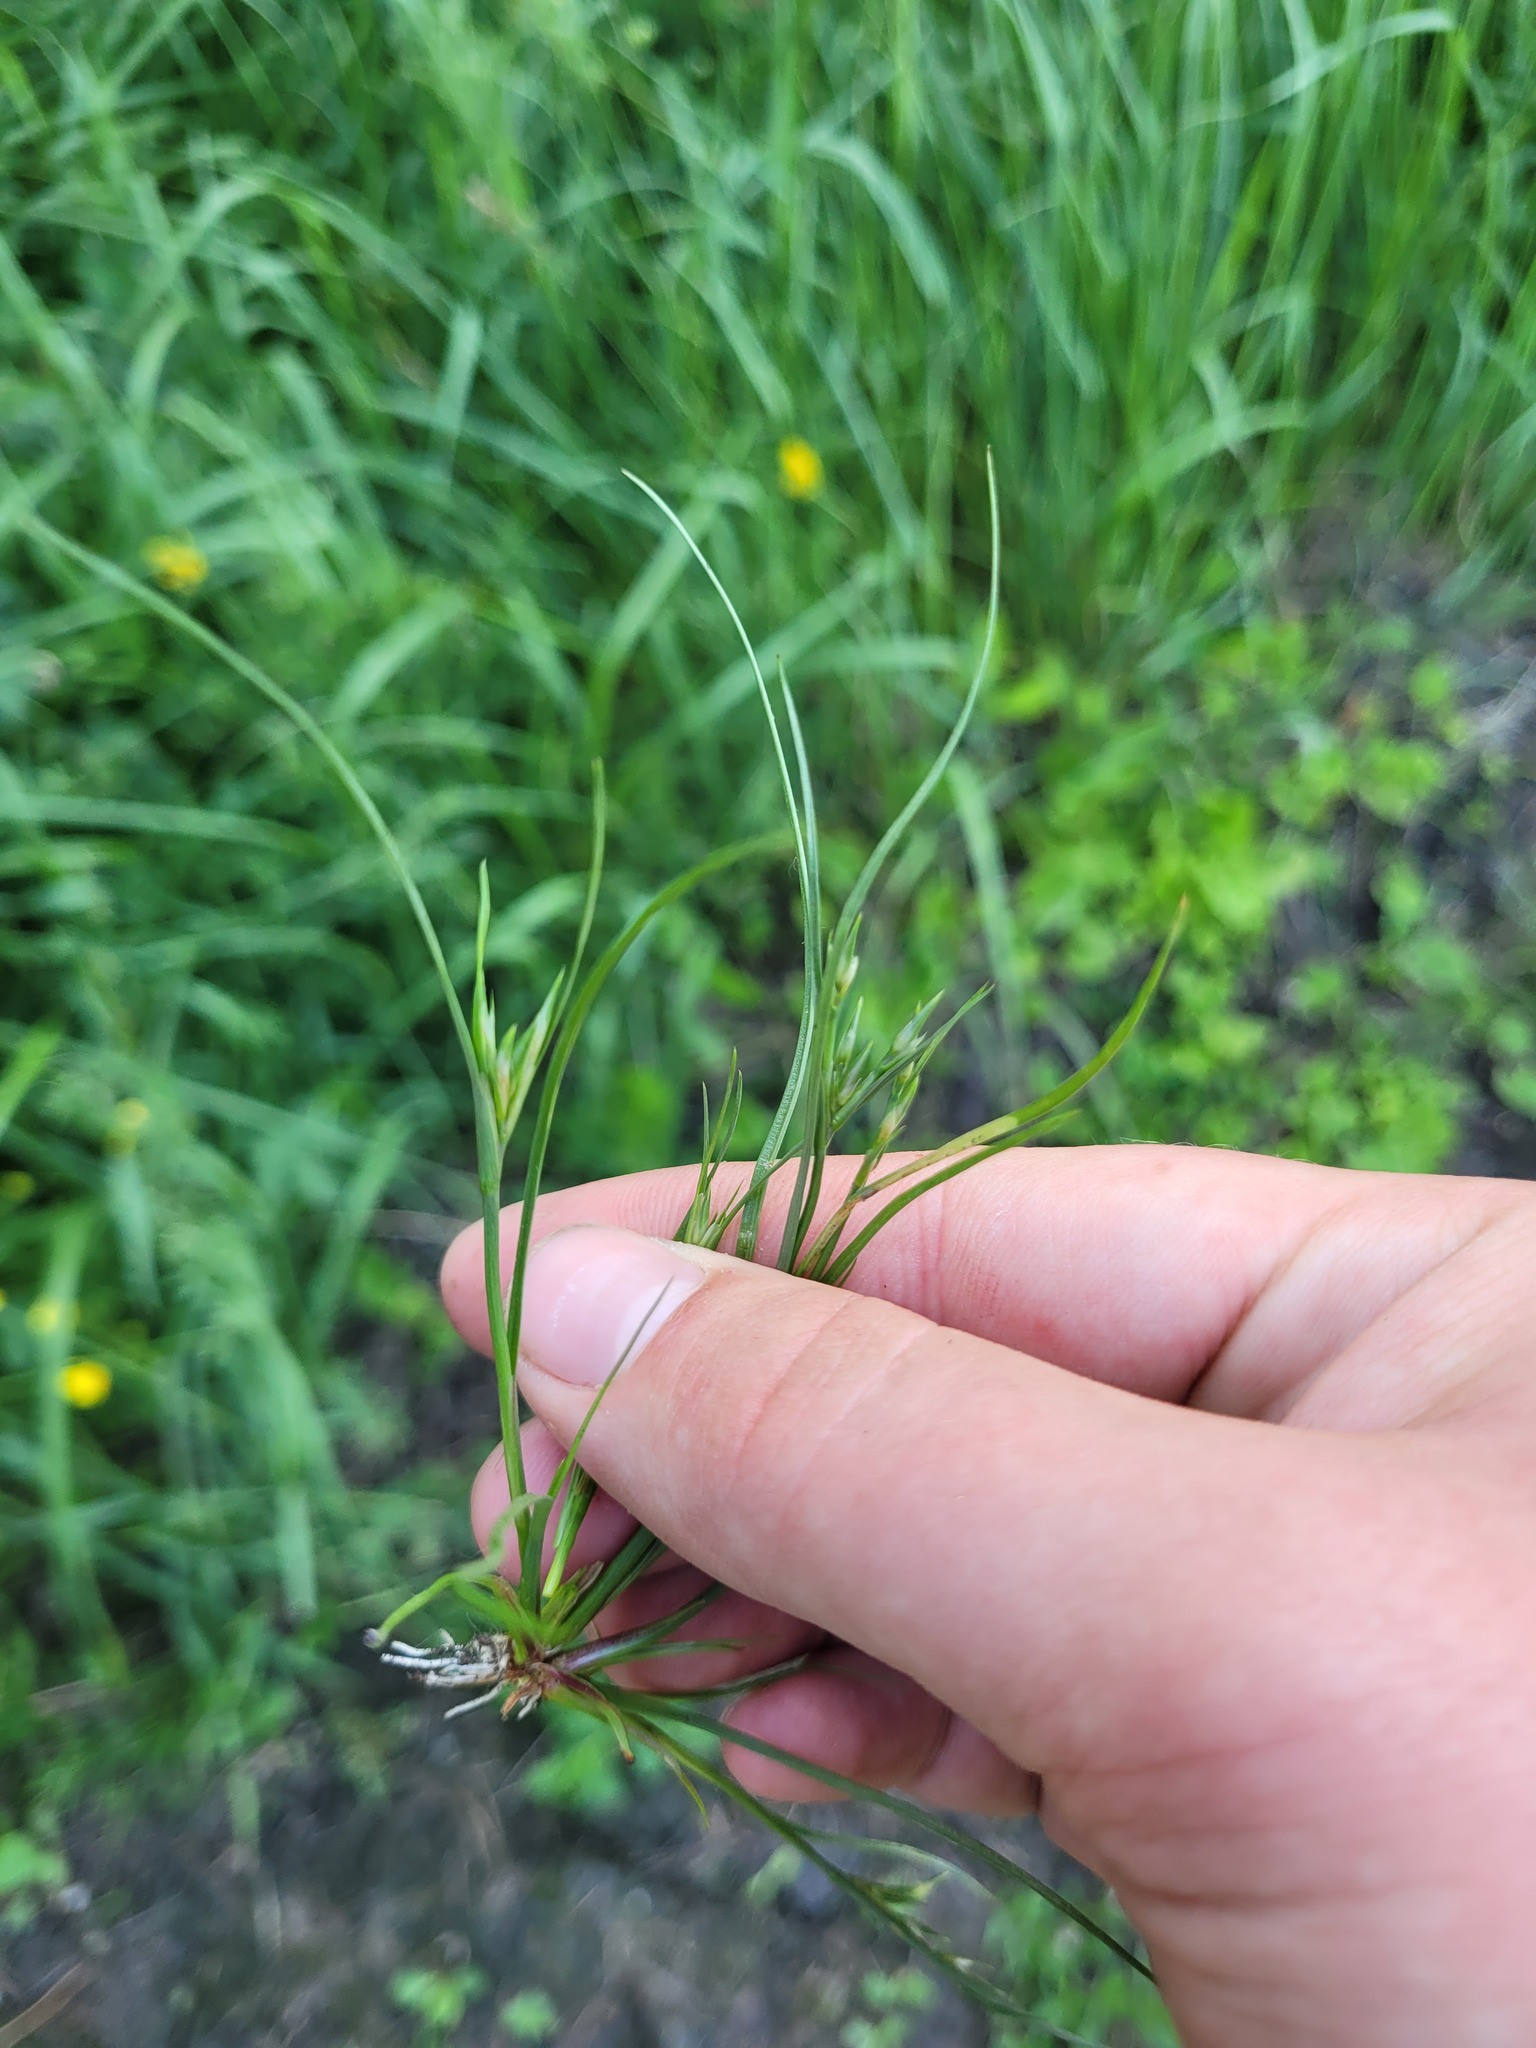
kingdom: Plantae
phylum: Tracheophyta
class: Liliopsida
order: Poales
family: Juncaceae
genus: Juncus
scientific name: Juncus bufonius
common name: Toad rush
